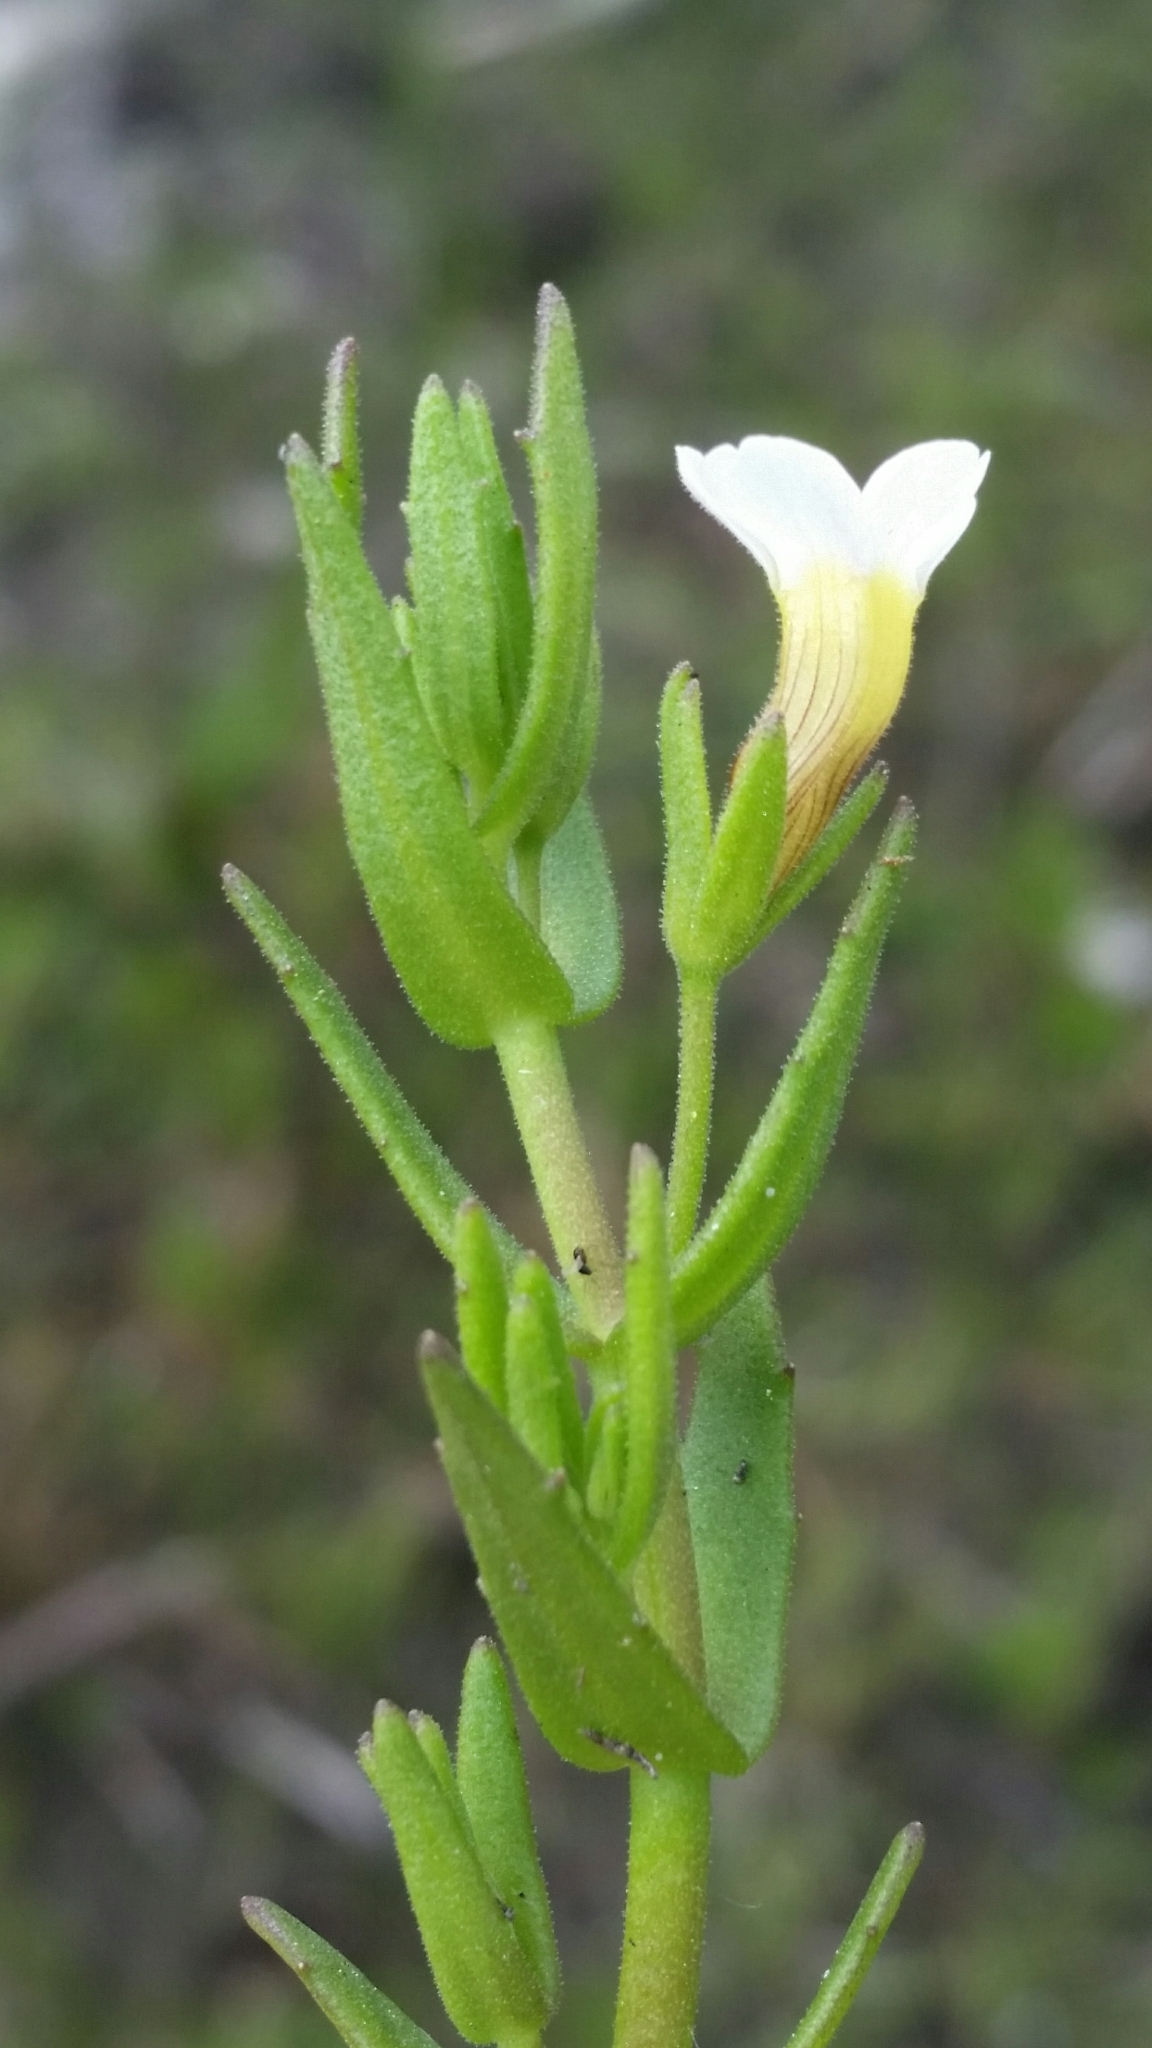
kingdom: Plantae
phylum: Tracheophyta
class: Magnoliopsida
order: Lamiales
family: Plantaginaceae
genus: Gratiola
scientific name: Gratiola ramosa
